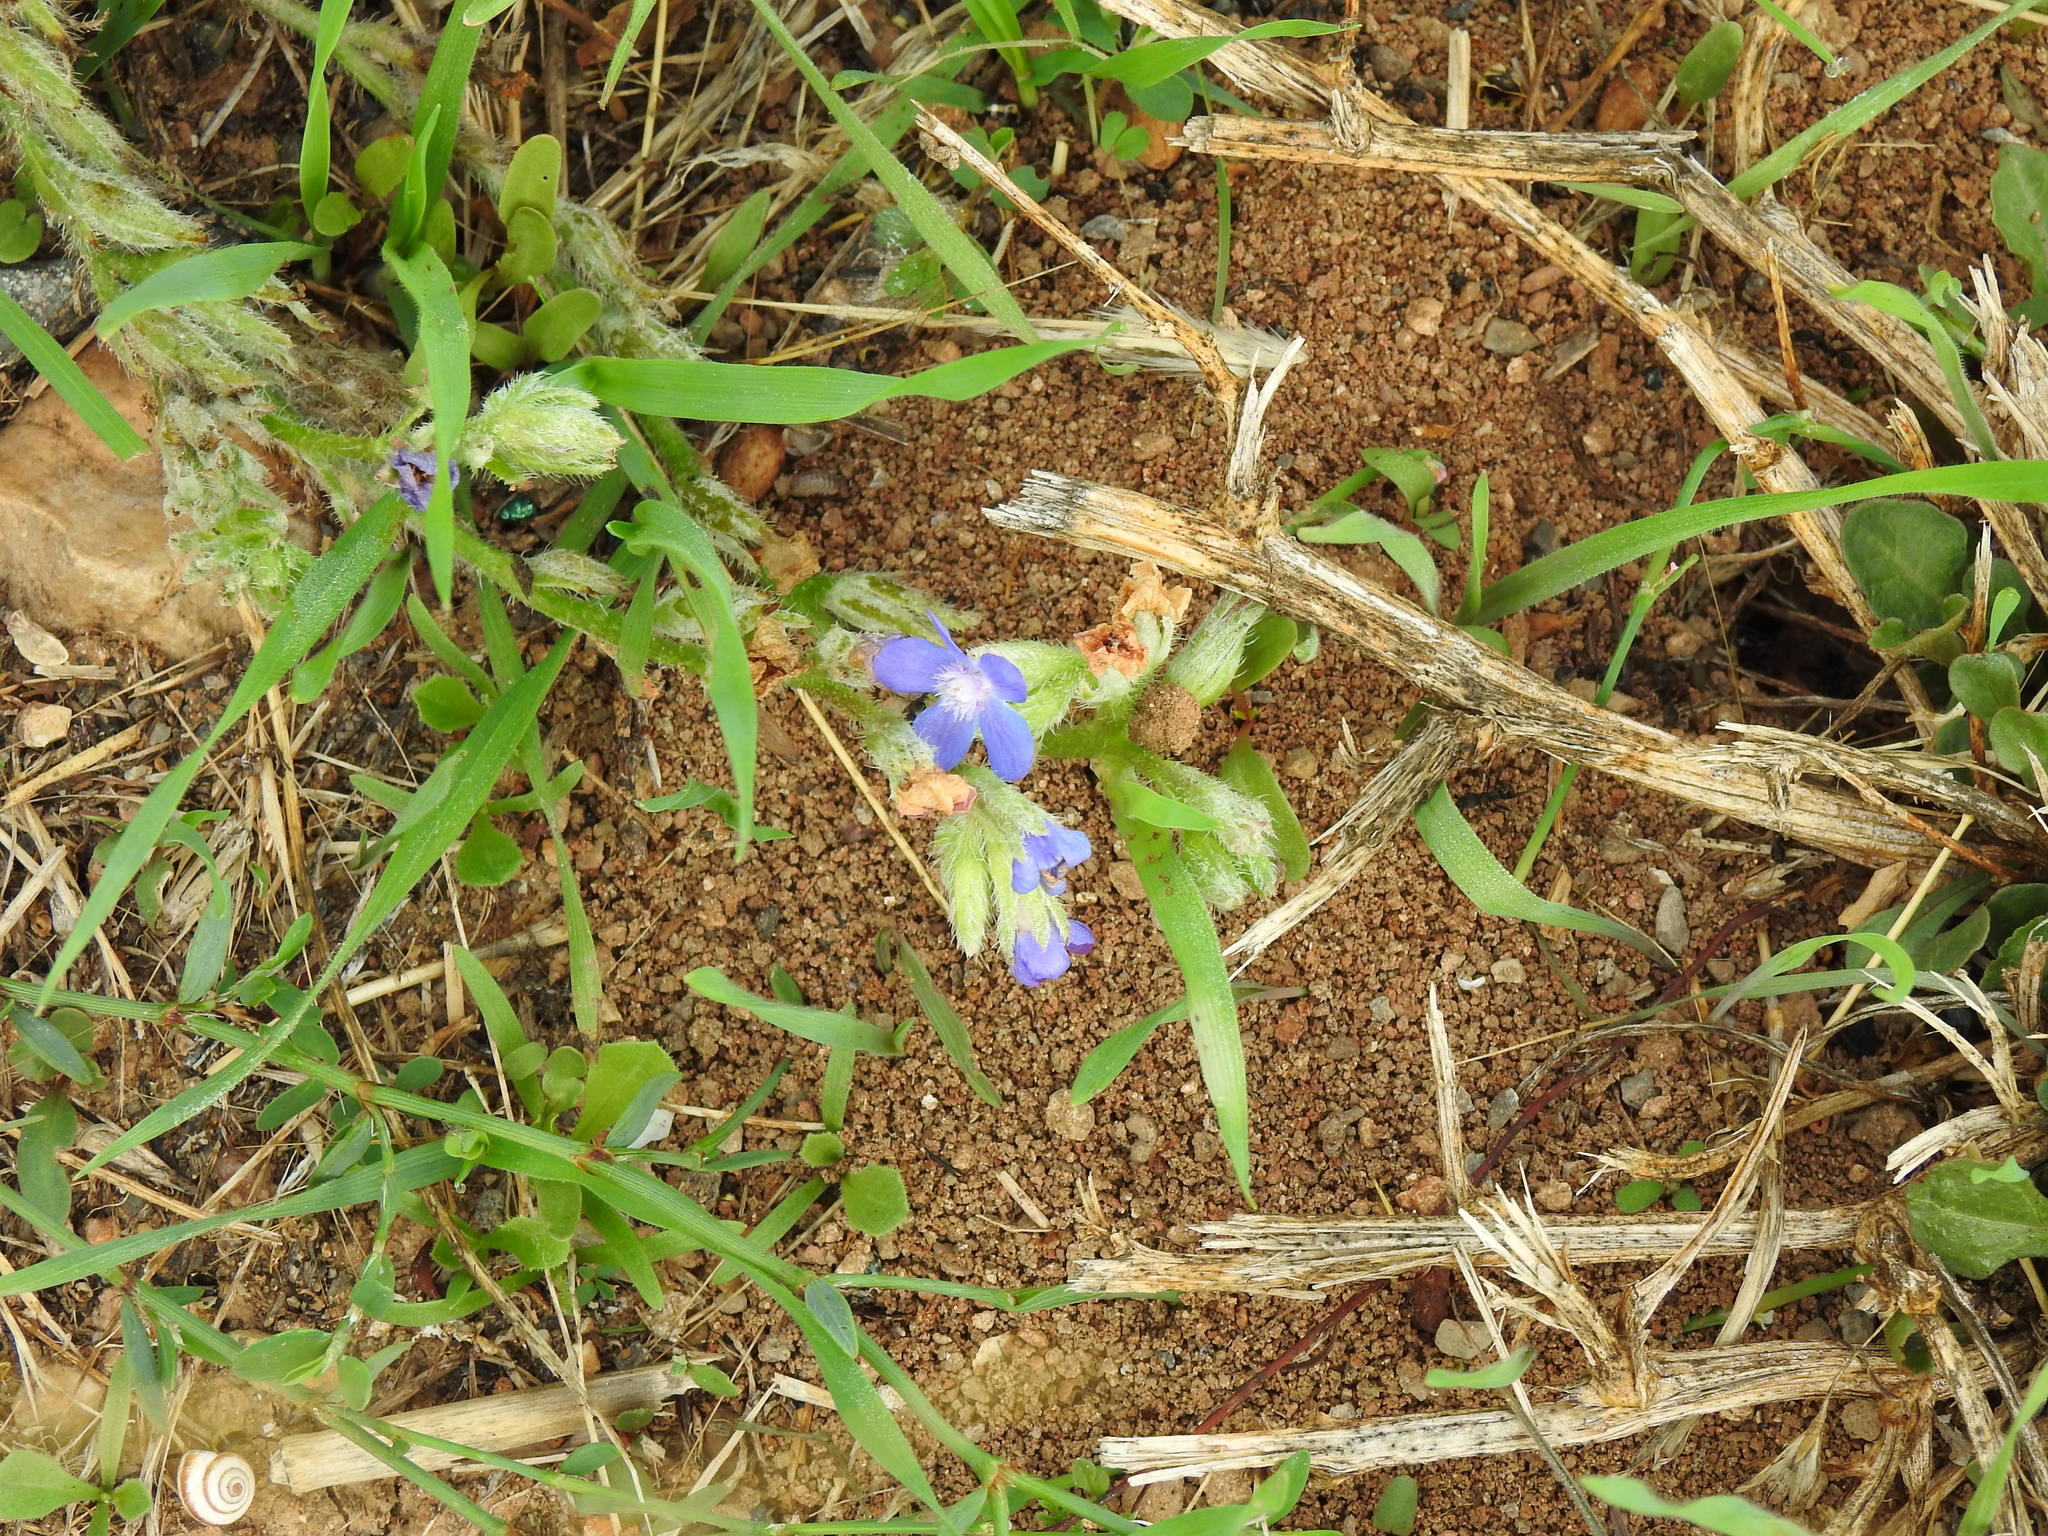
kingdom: Plantae
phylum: Tracheophyta
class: Magnoliopsida
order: Boraginales
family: Boraginaceae
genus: Anchusa
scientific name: Anchusa azurea
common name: Garden anchusa
